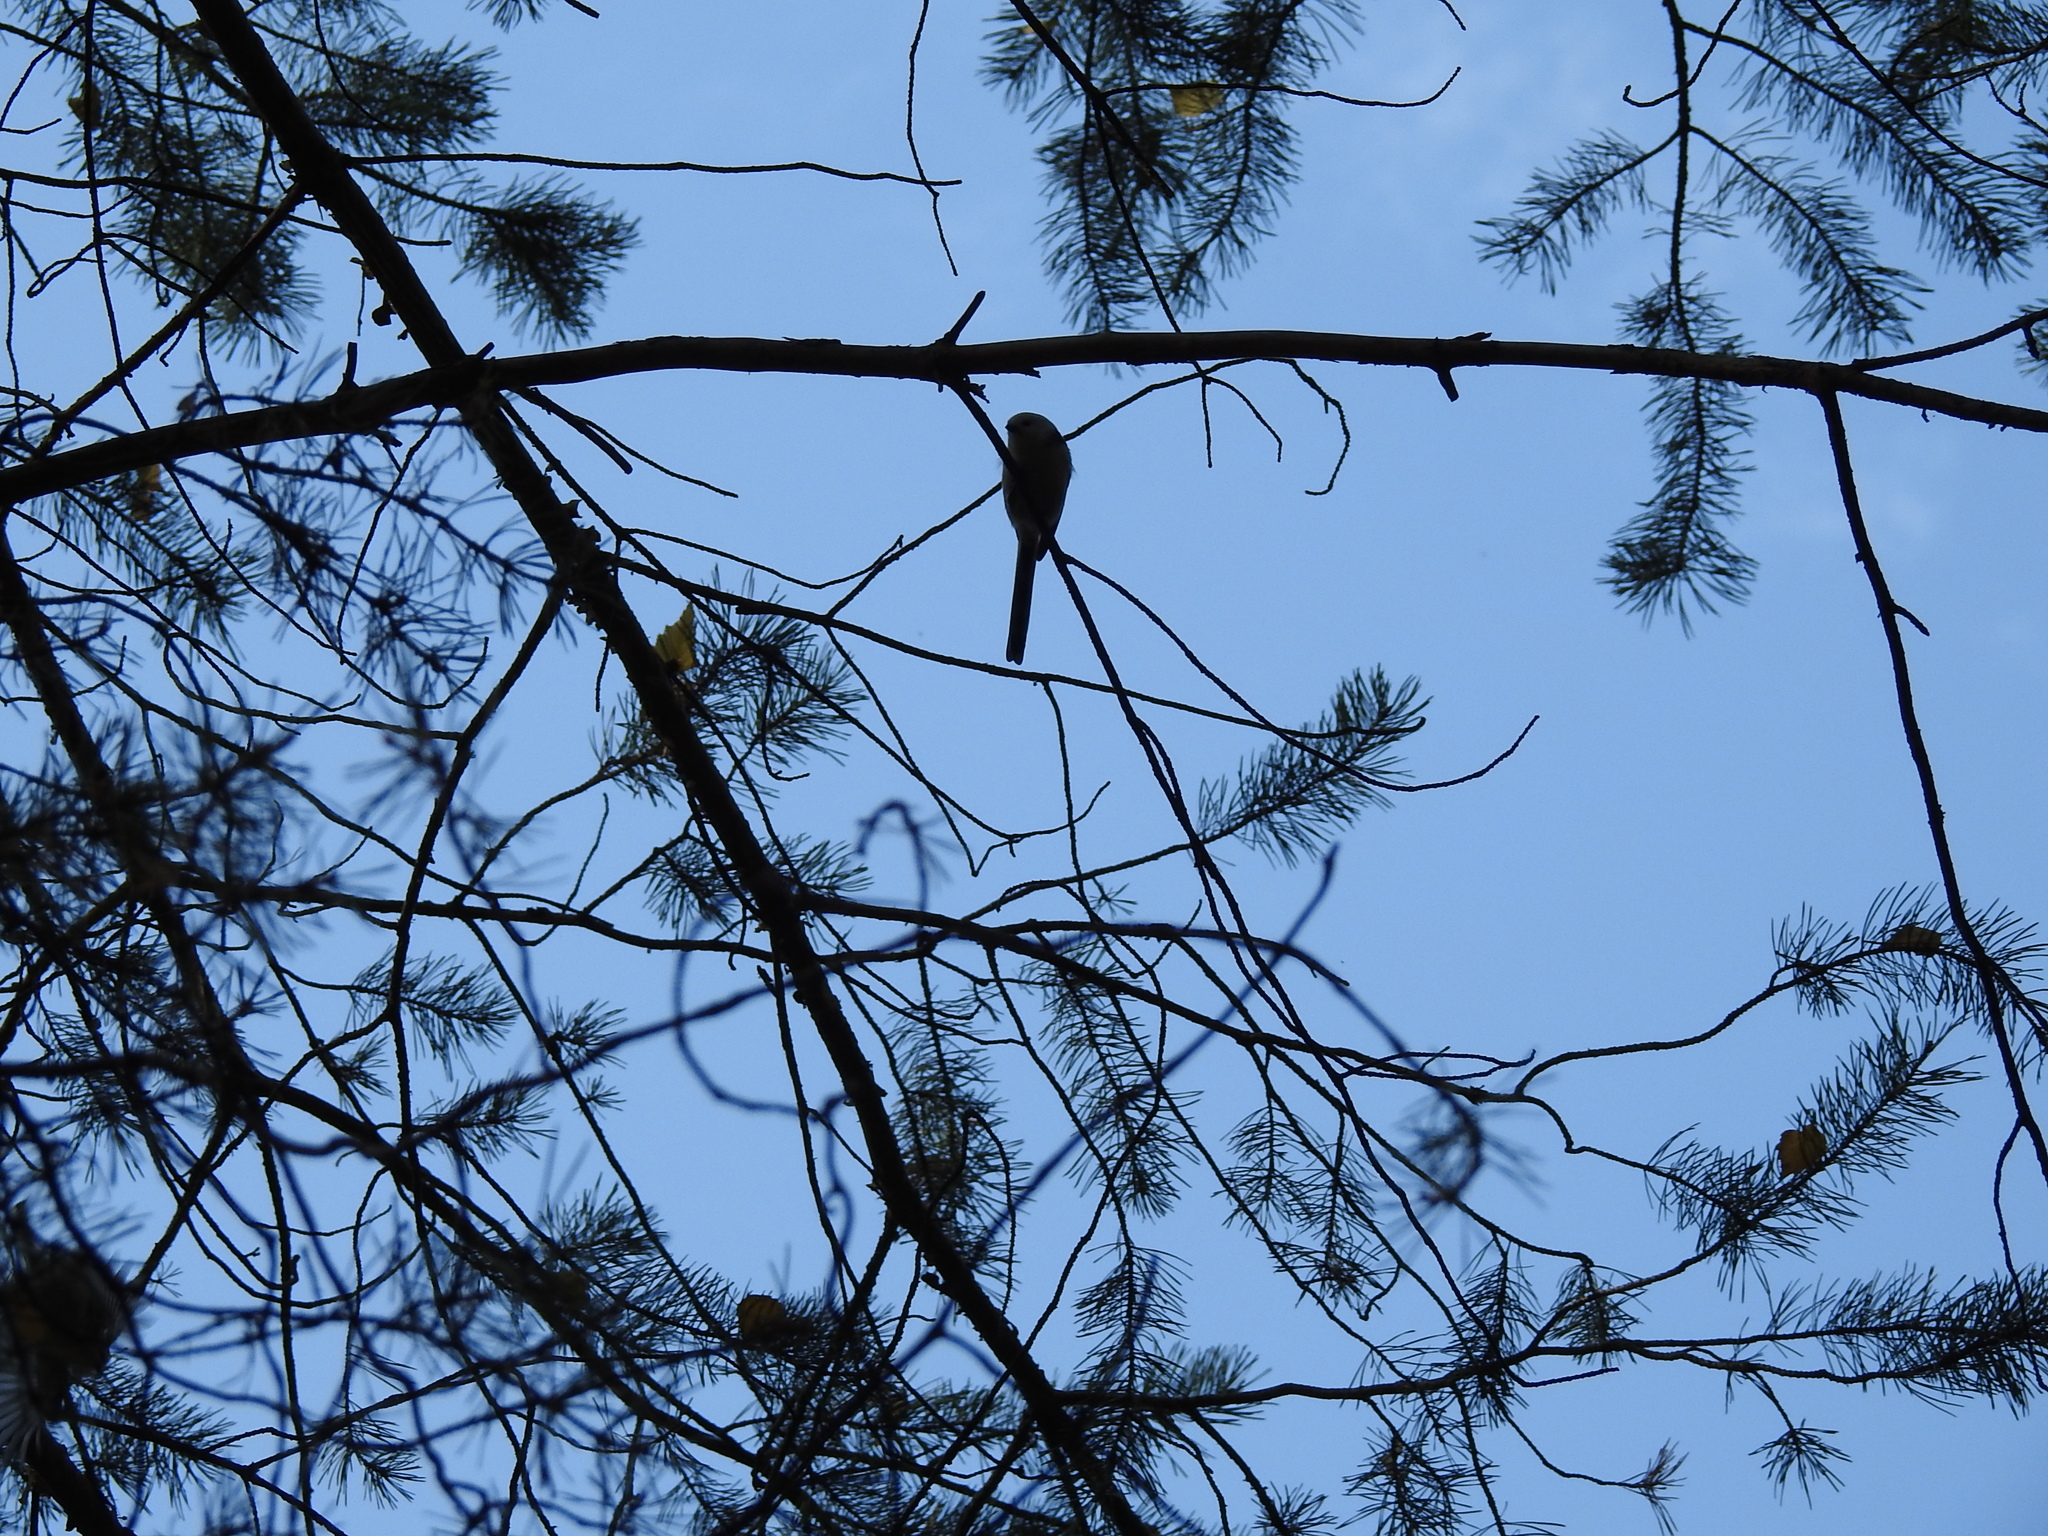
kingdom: Animalia
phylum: Chordata
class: Aves
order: Passeriformes
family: Aegithalidae
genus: Aegithalos
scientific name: Aegithalos caudatus
